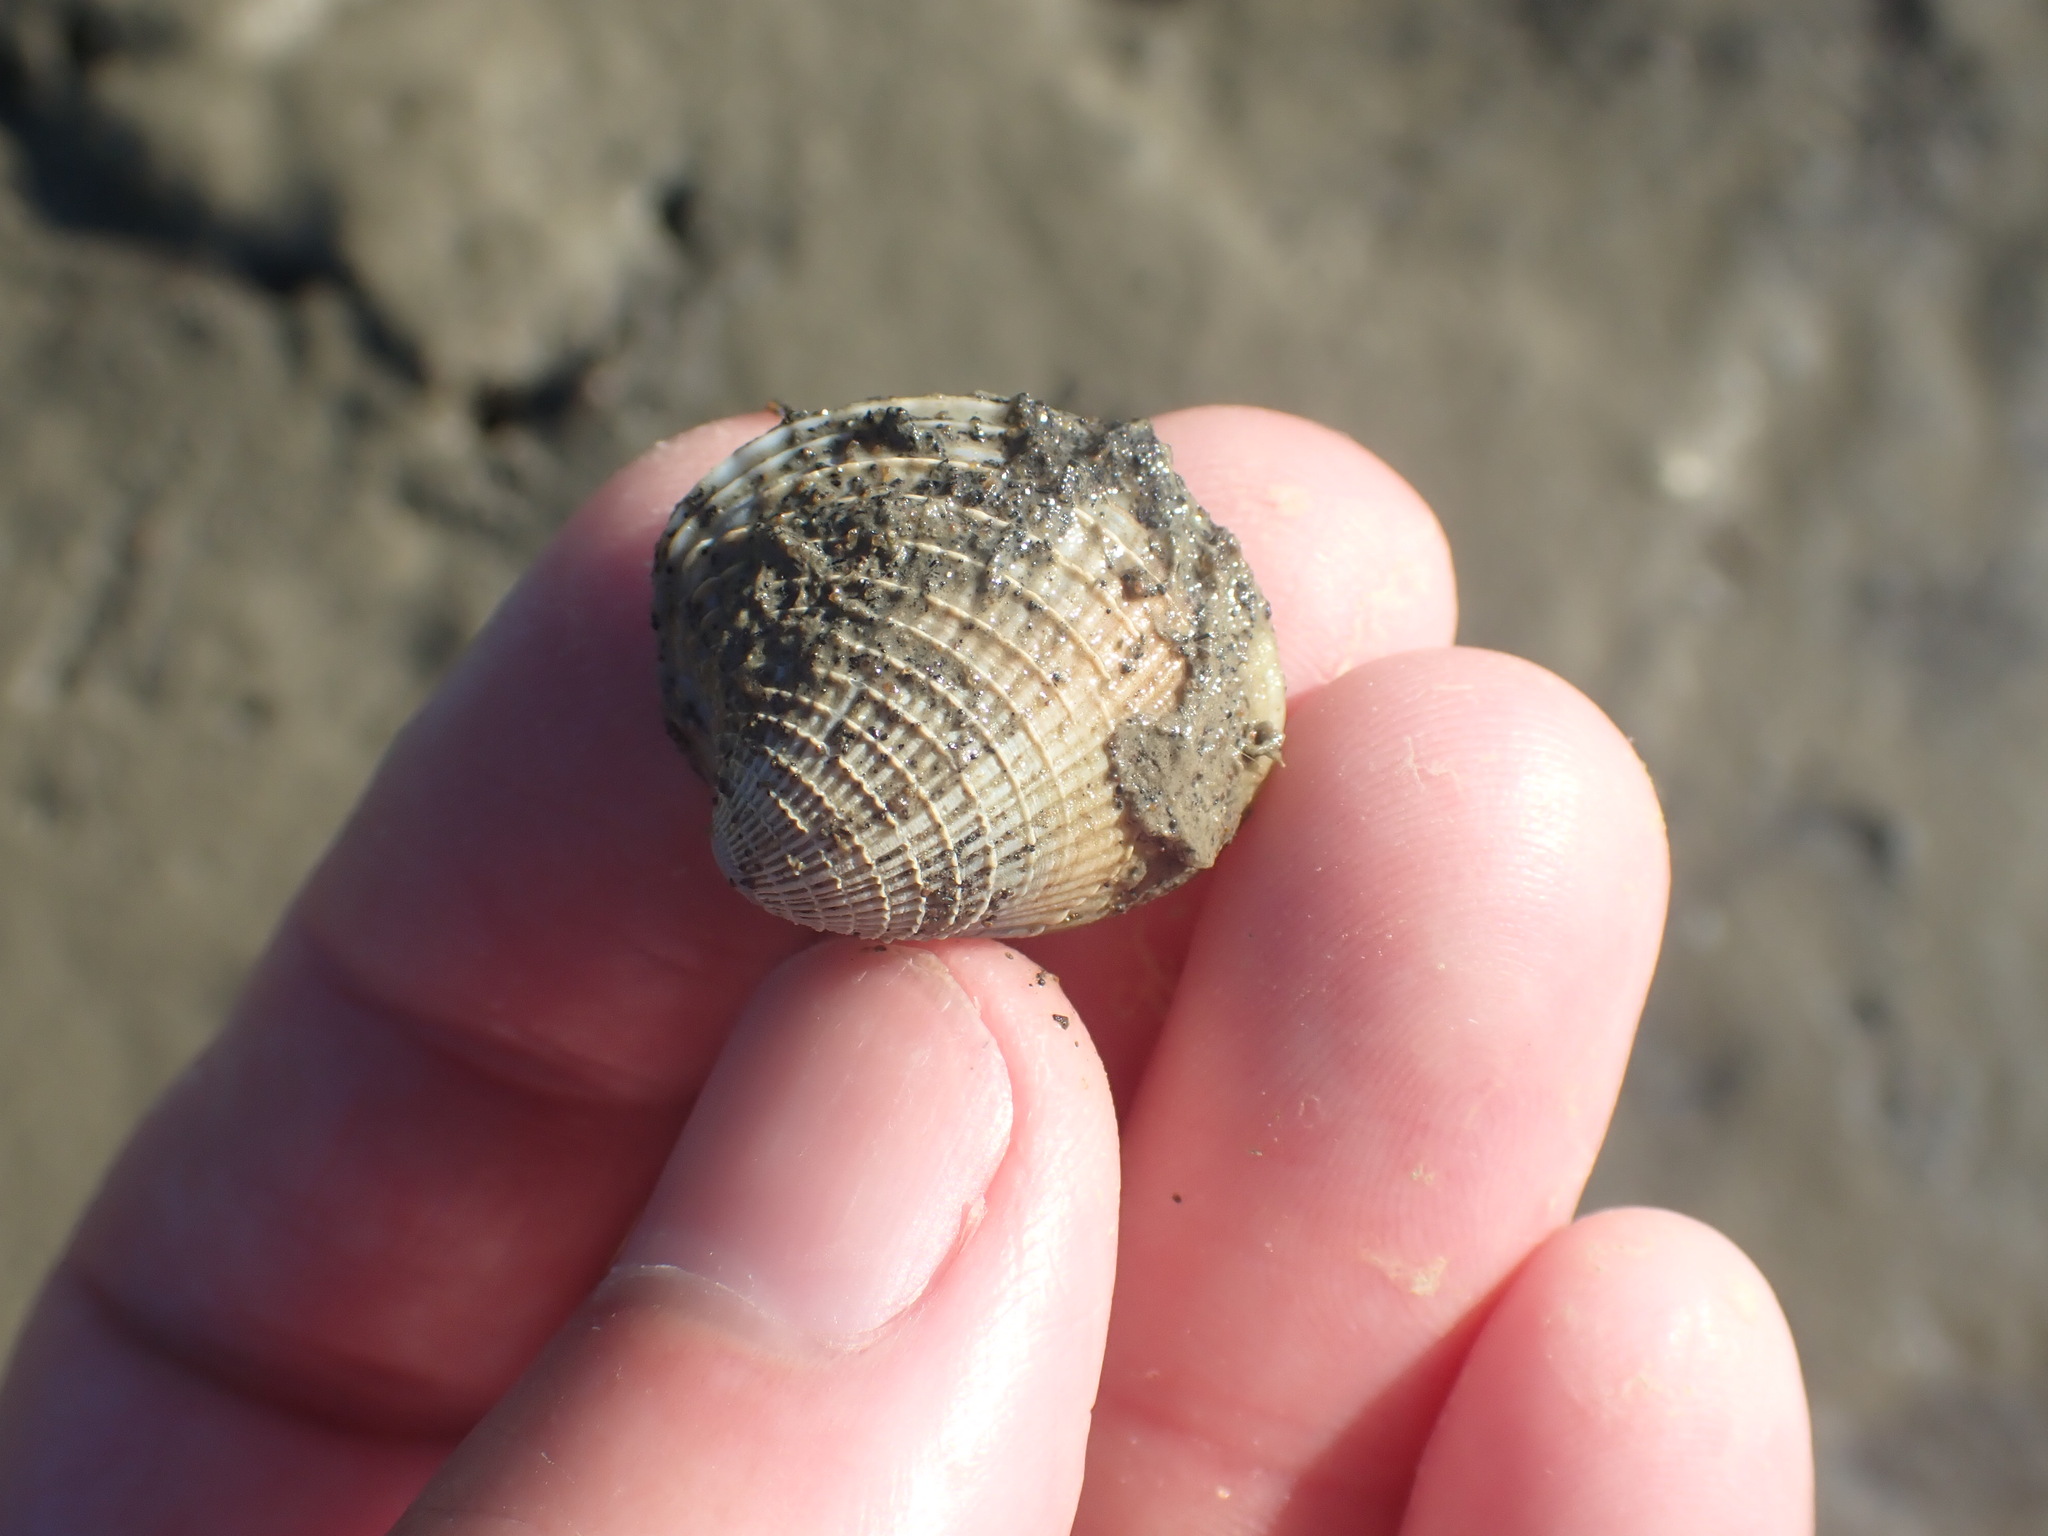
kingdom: Animalia
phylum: Mollusca
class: Bivalvia
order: Venerida
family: Veneridae
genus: Austrovenus
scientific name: Austrovenus stutchburyi
